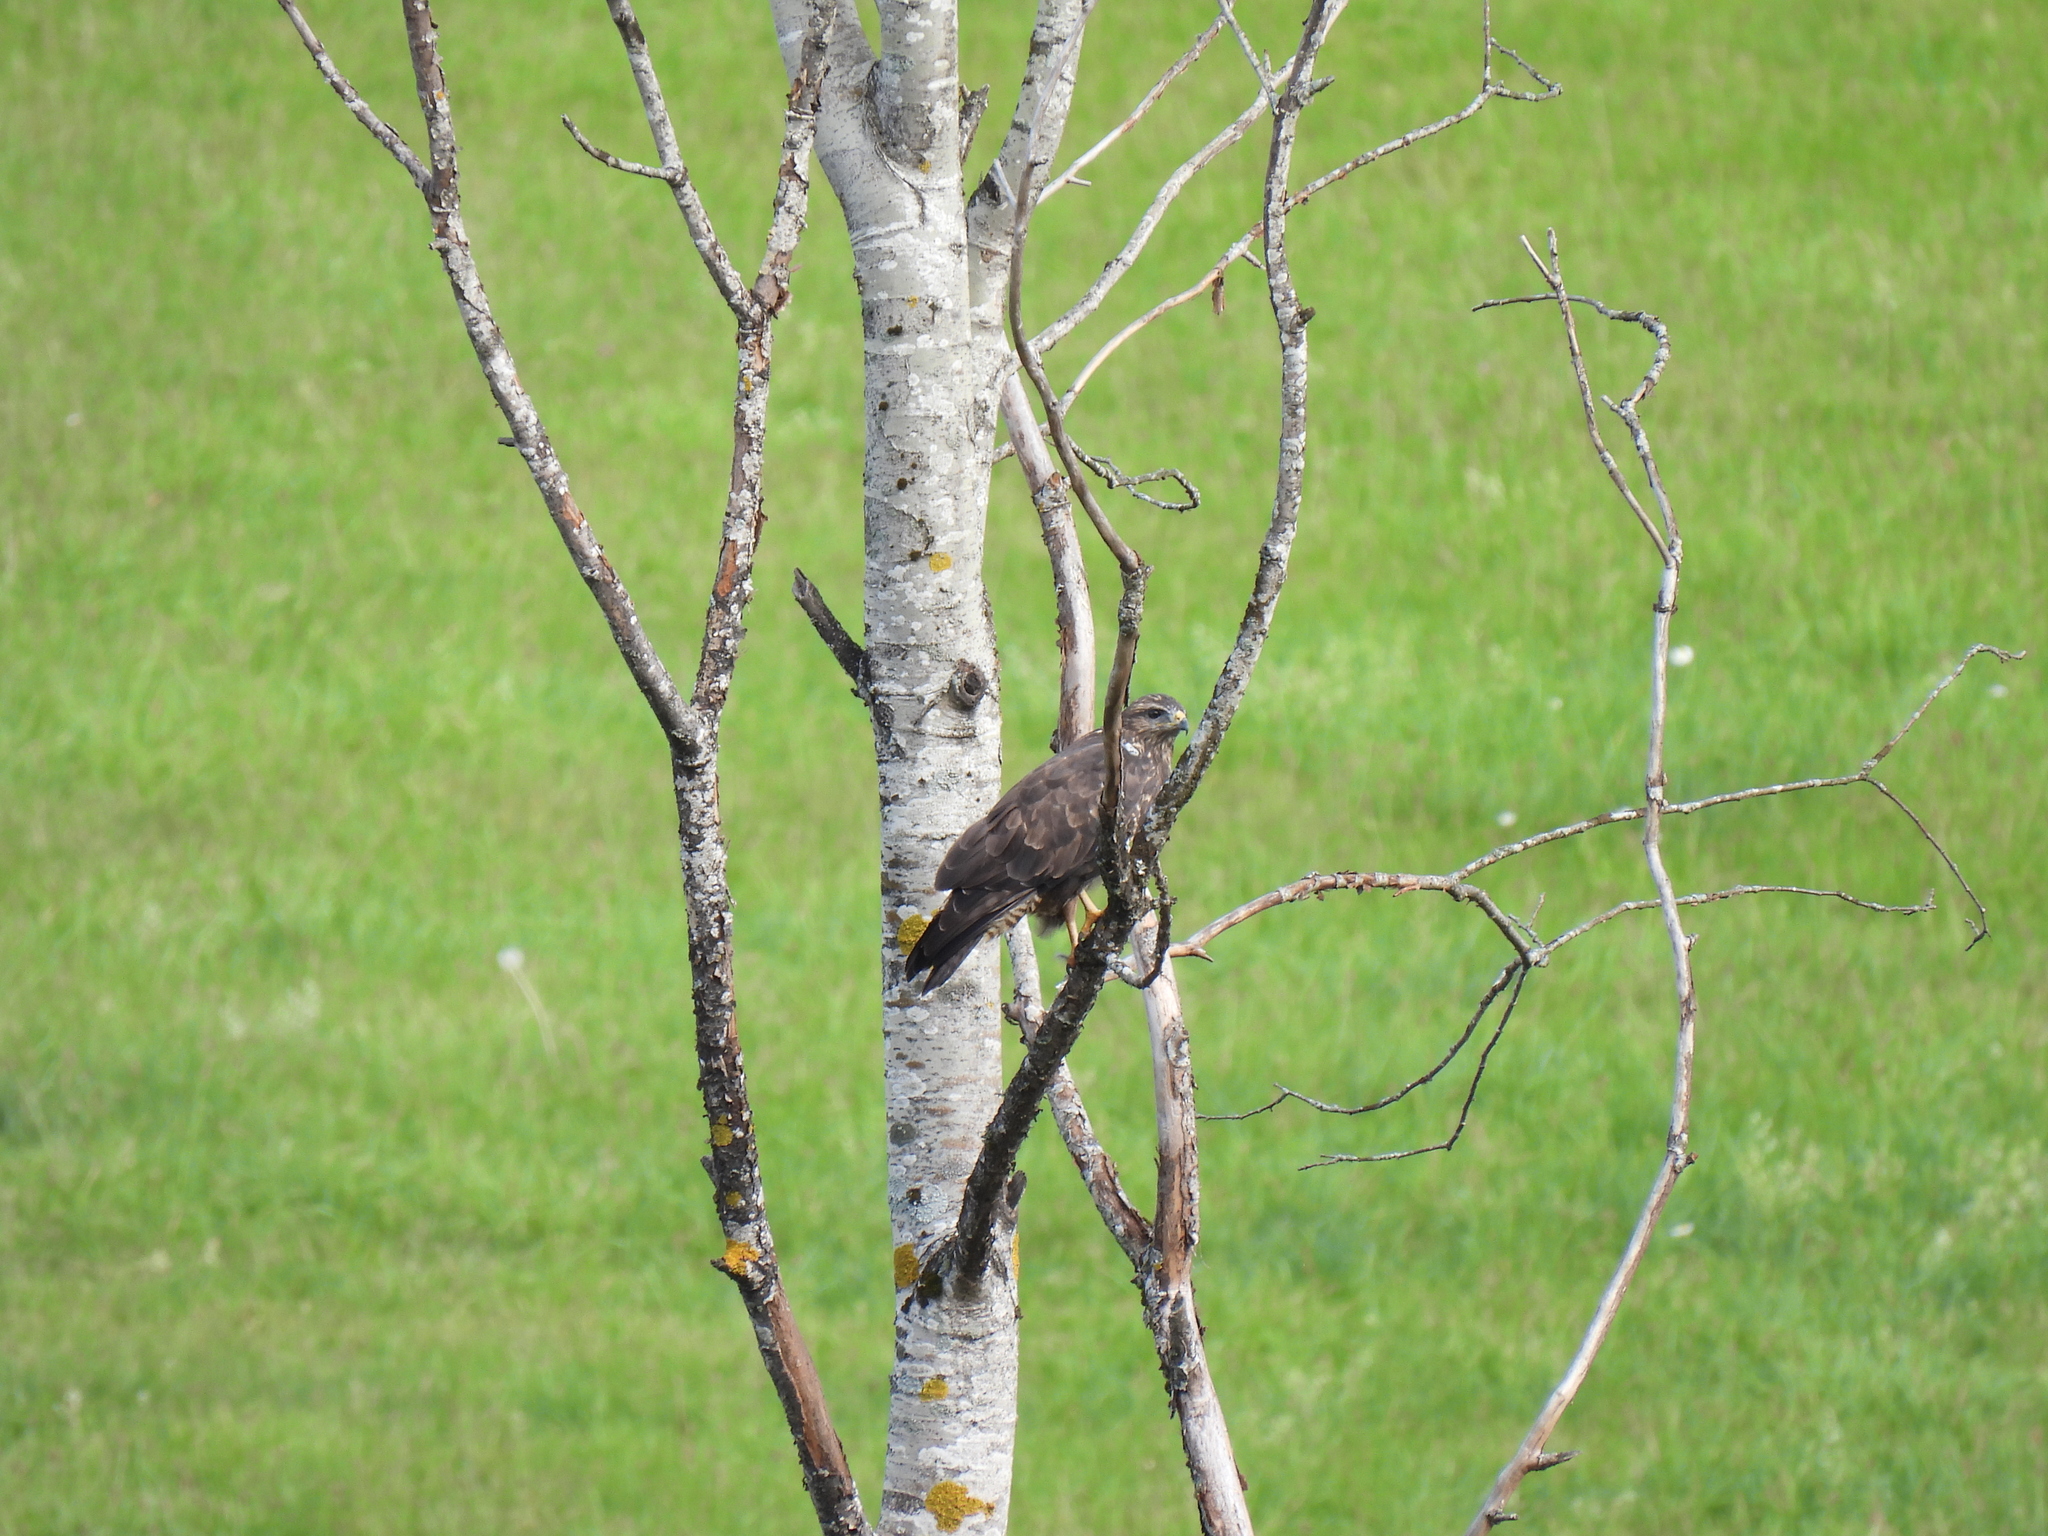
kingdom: Animalia
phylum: Chordata
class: Aves
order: Accipitriformes
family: Accipitridae
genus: Buteo
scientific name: Buteo buteo
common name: Common buzzard
